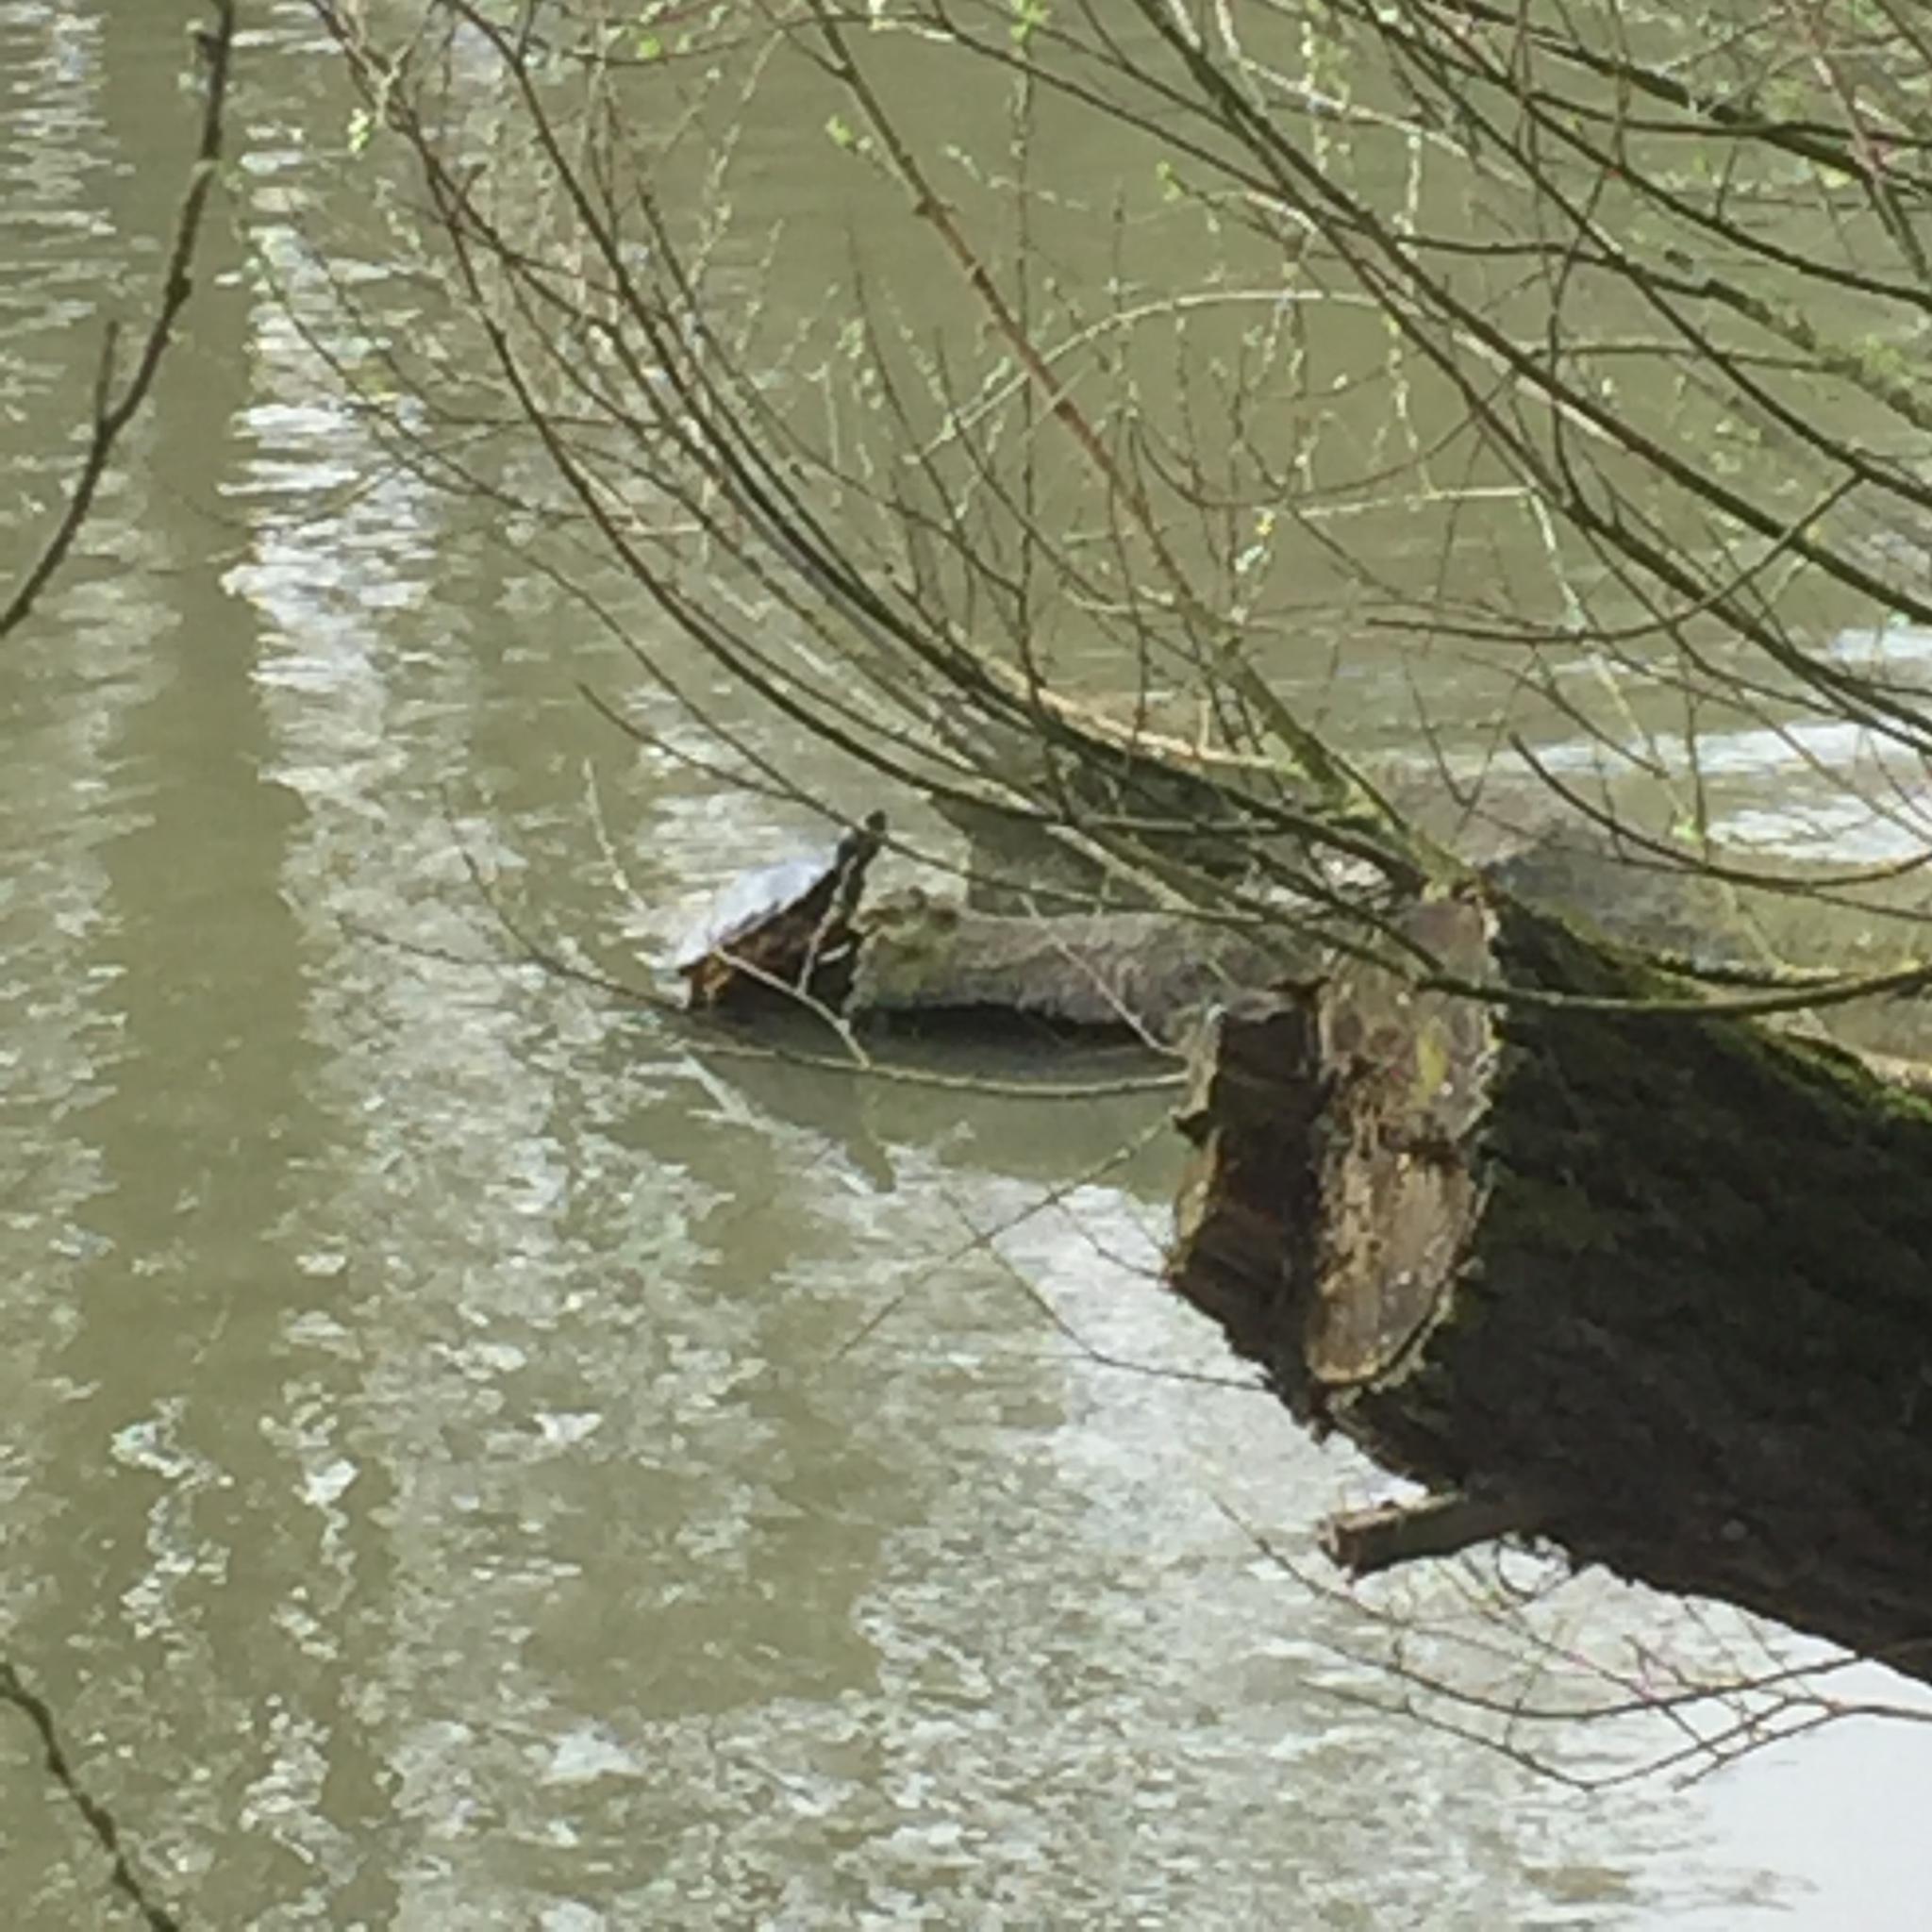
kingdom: Animalia
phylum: Chordata
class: Testudines
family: Emydidae
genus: Trachemys
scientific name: Trachemys scripta
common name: Slider
